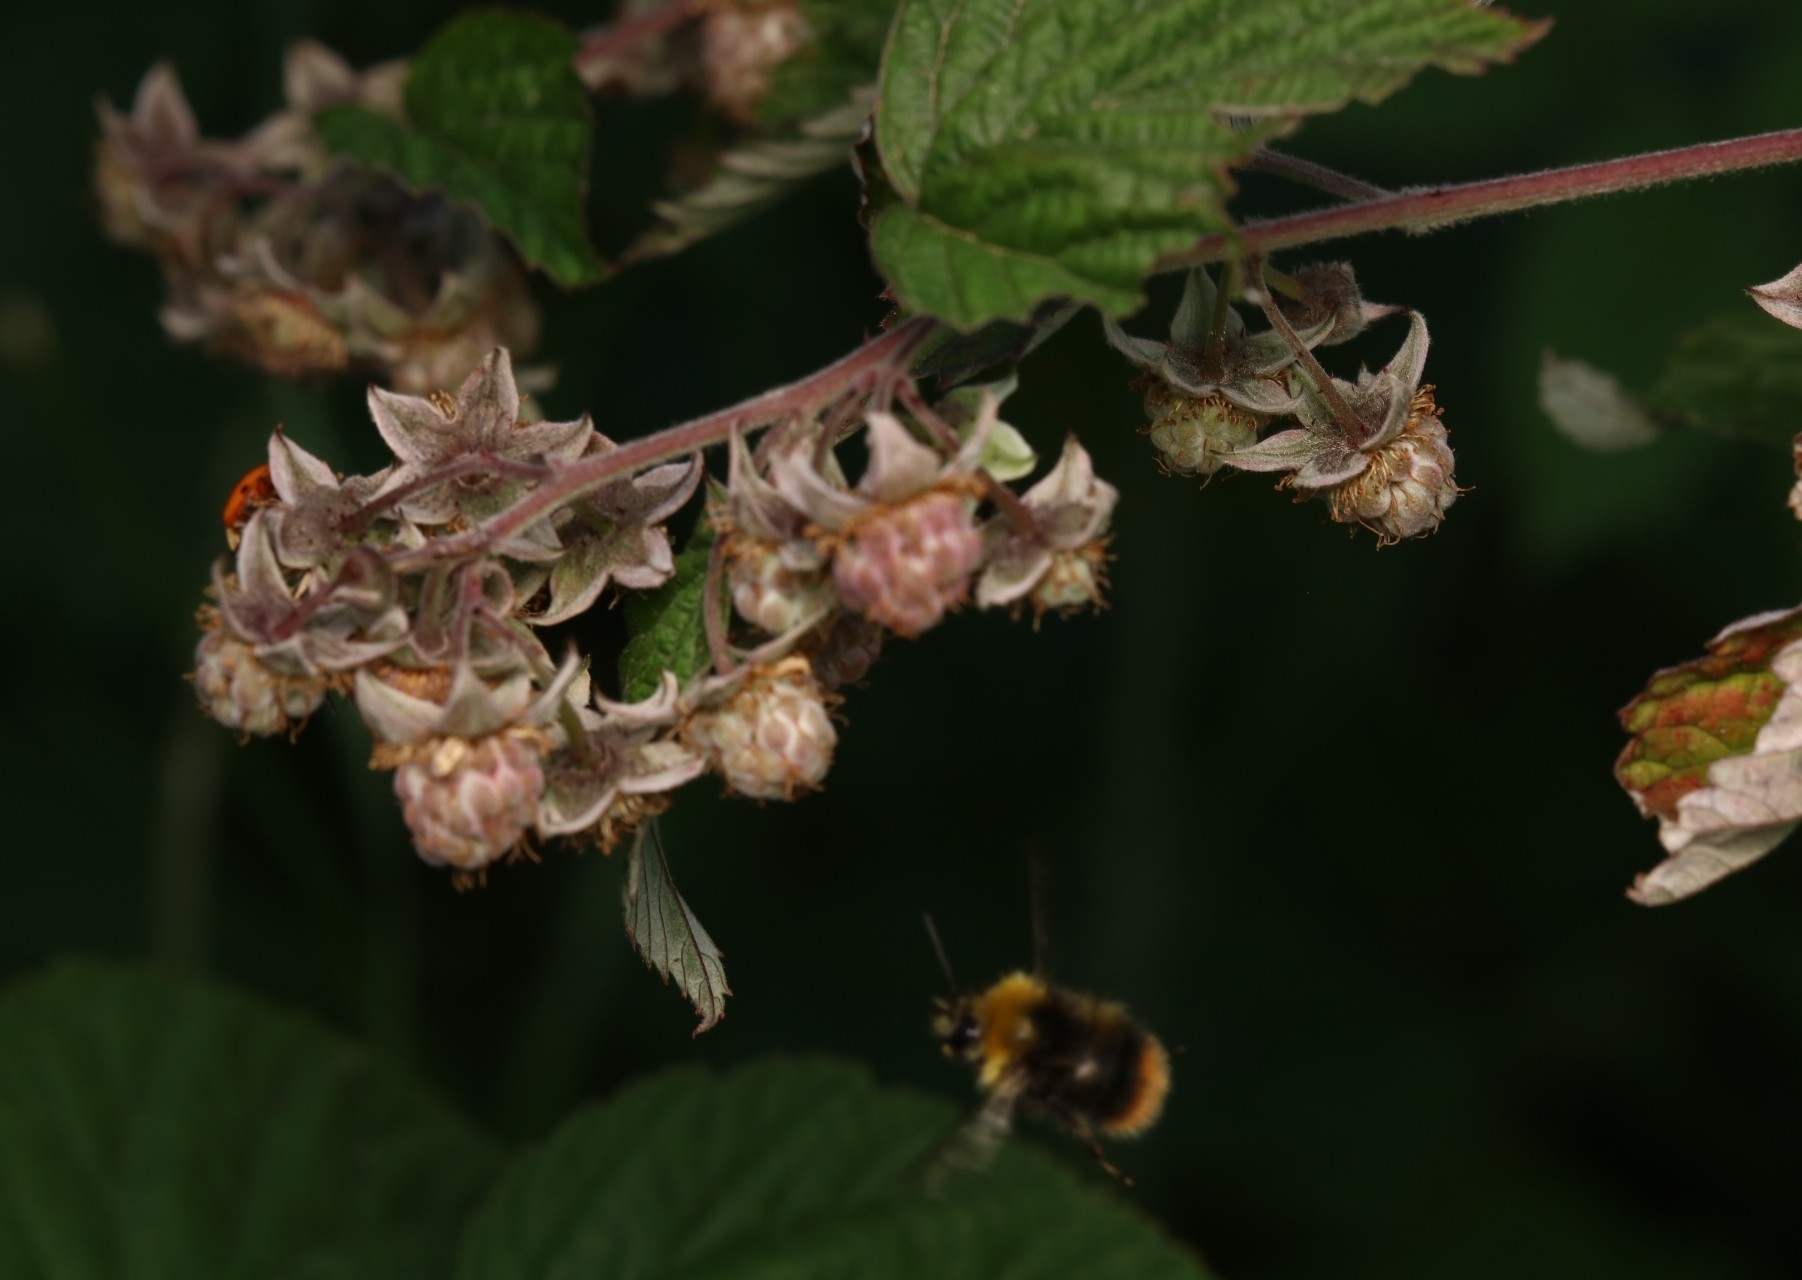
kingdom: Animalia
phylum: Arthropoda
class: Insecta
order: Hymenoptera
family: Apidae
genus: Bombus
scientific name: Bombus pratorum
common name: Early humble-bee
